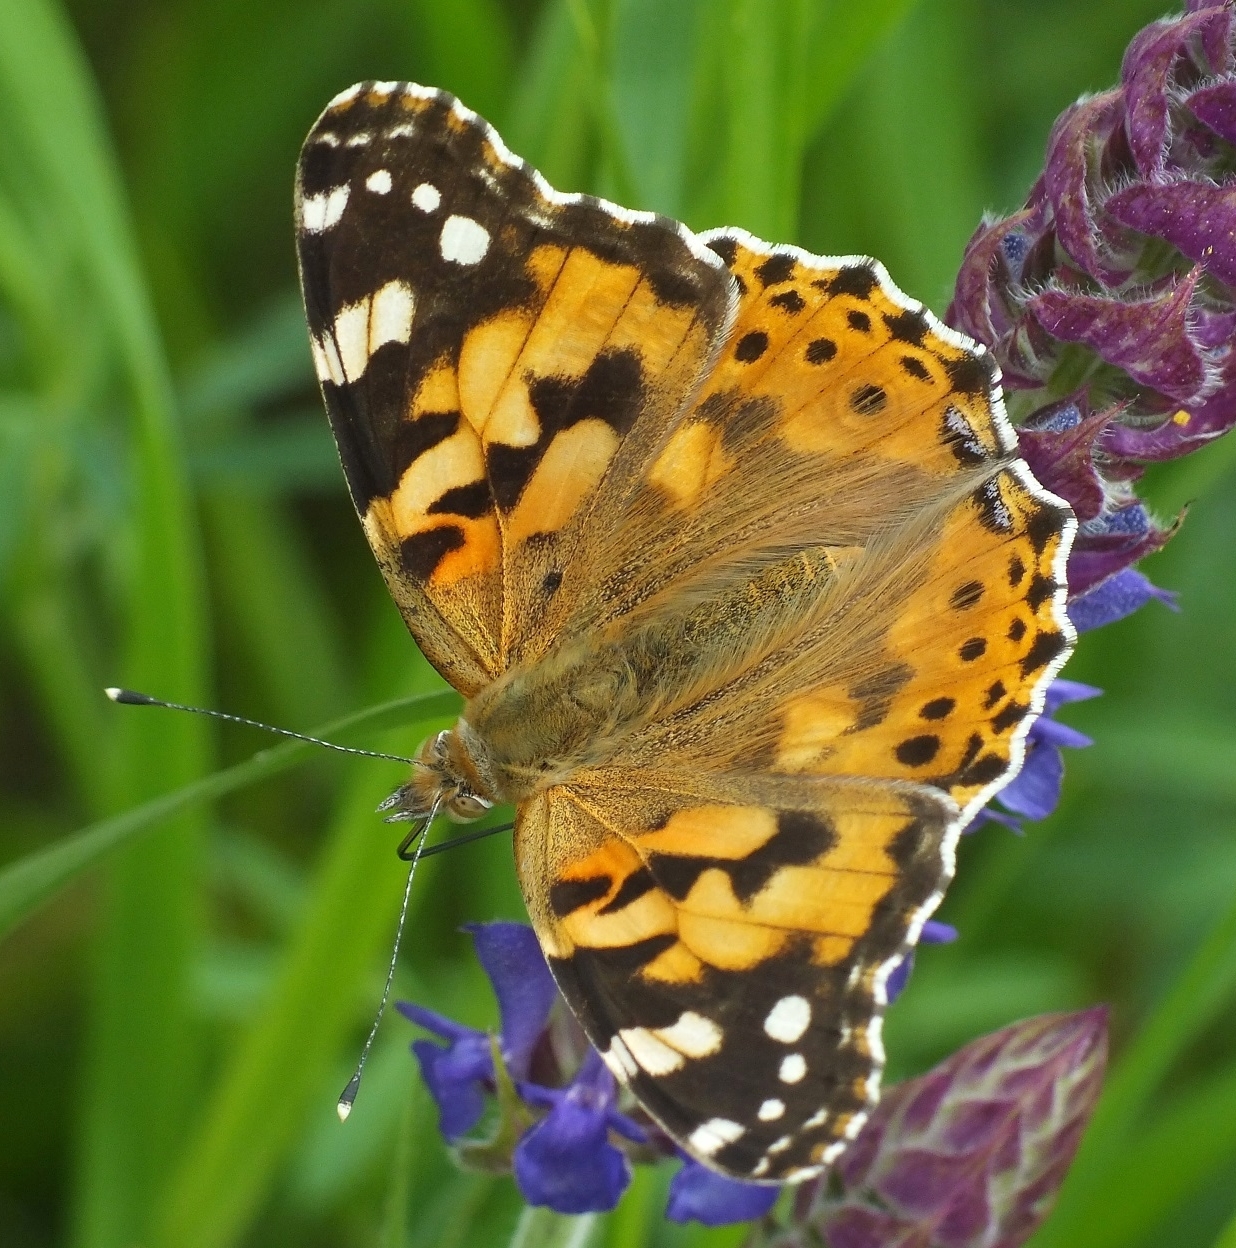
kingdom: Animalia
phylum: Arthropoda
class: Insecta
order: Lepidoptera
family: Nymphalidae
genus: Vanessa
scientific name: Vanessa cardui
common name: Painted lady
